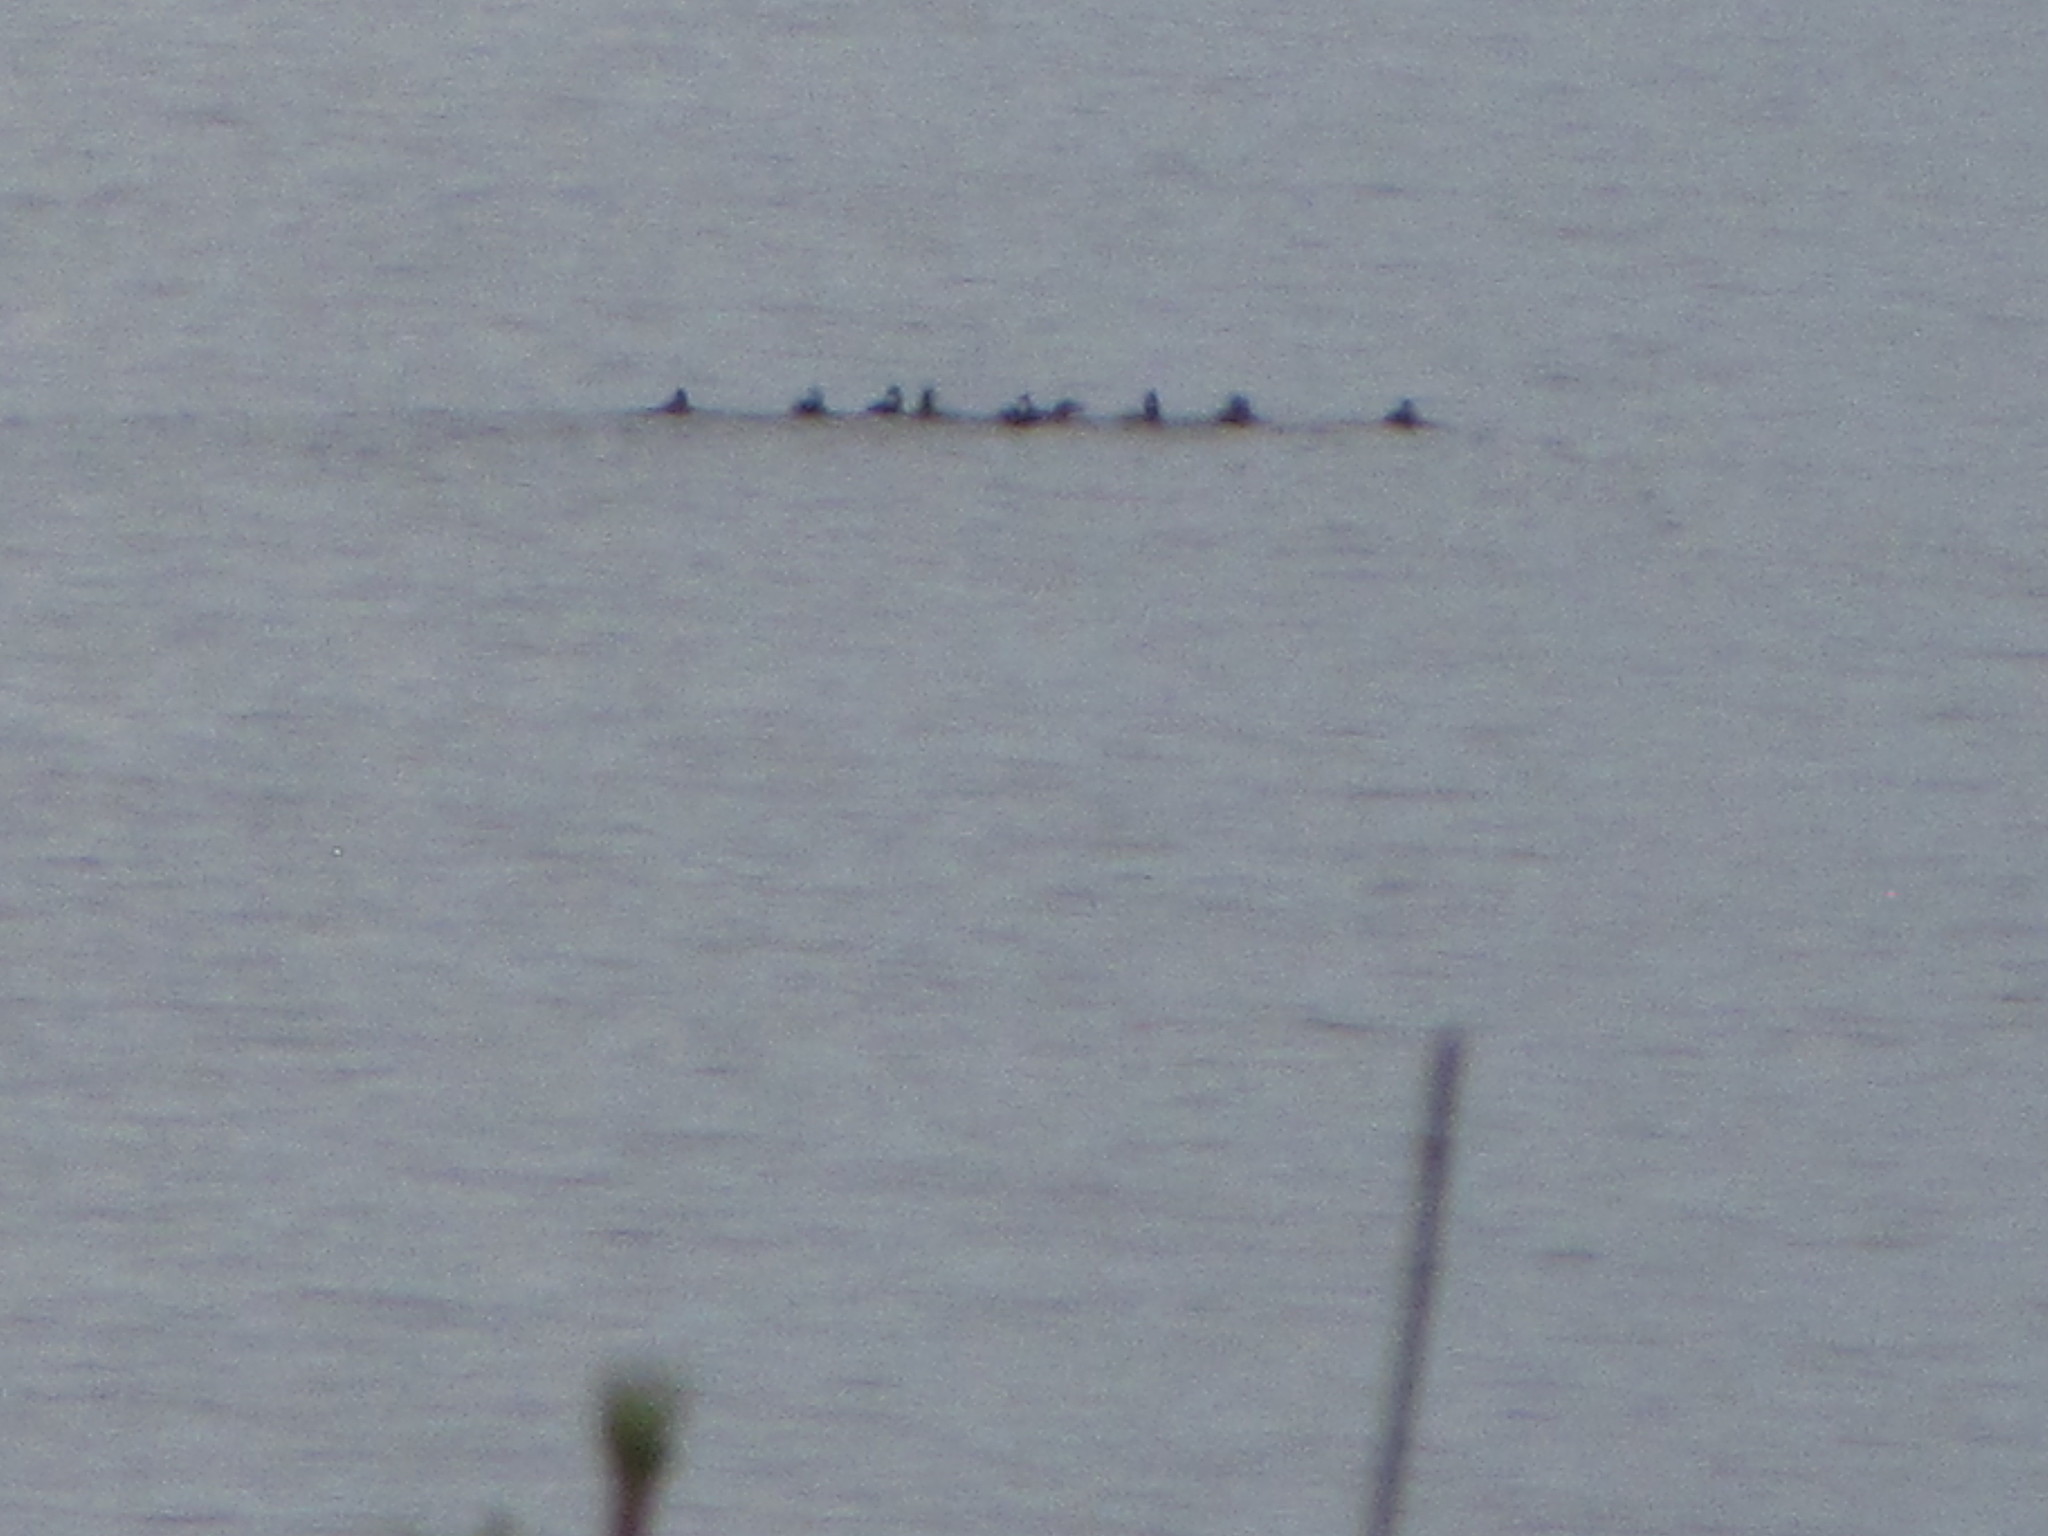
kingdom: Animalia
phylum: Chordata
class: Aves
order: Anseriformes
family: Anatidae
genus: Melanitta
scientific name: Melanitta perspicillata
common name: Surf scoter
